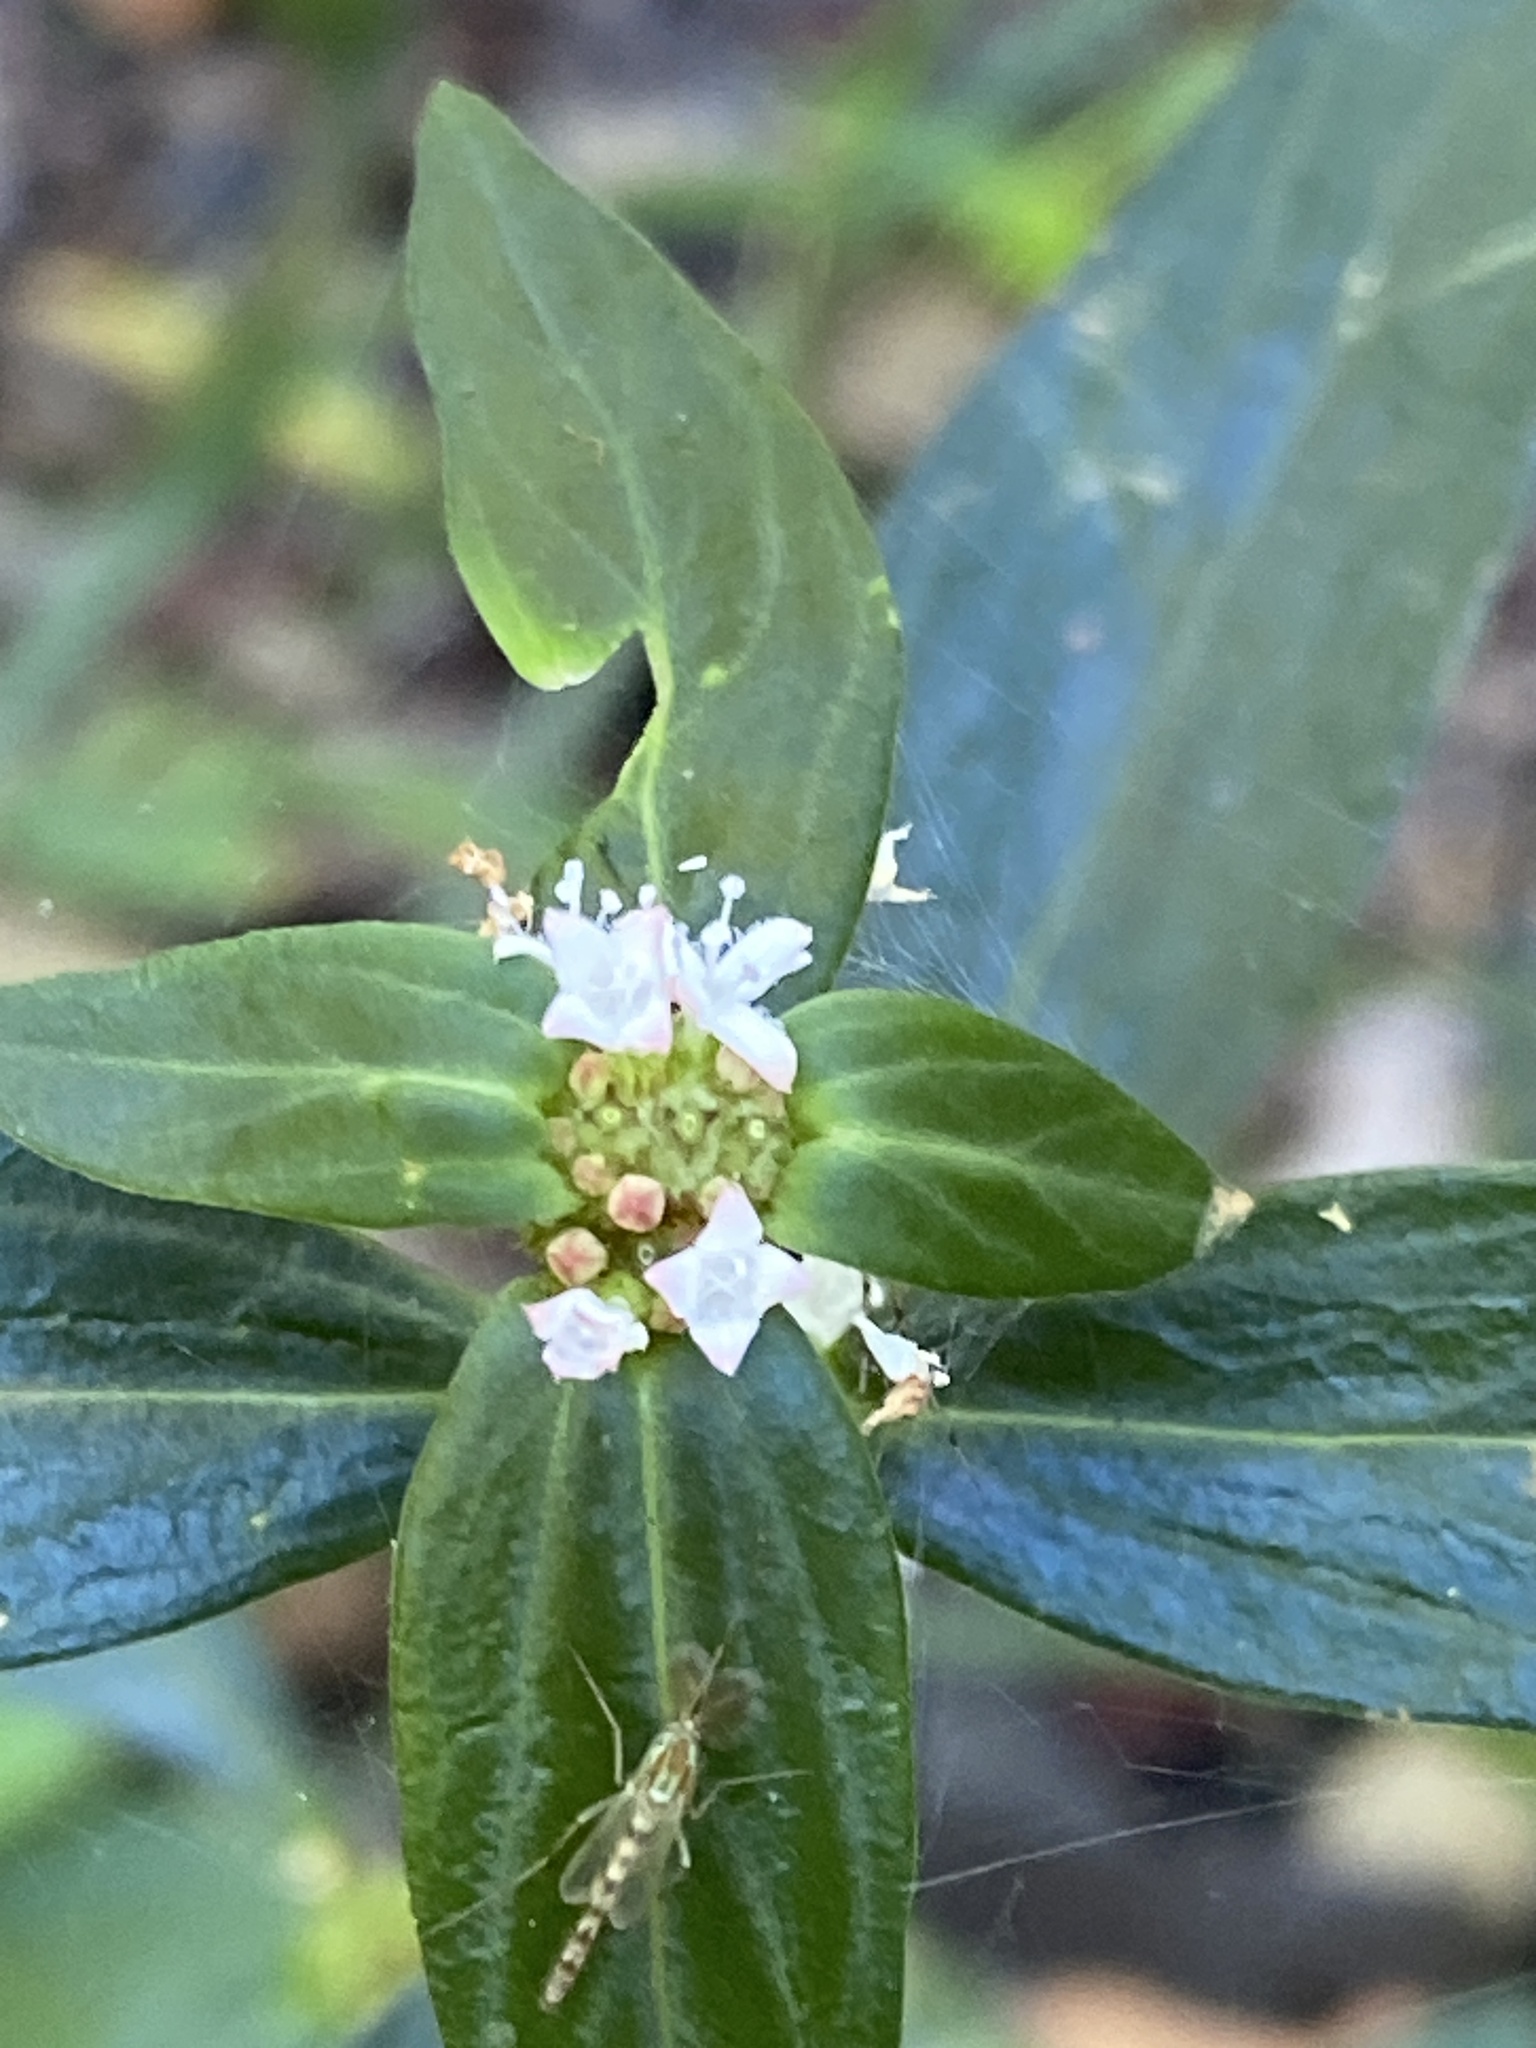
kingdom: Plantae
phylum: Tracheophyta
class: Magnoliopsida
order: Gentianales
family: Rubiaceae
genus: Spermacoce
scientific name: Spermacoce remota
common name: Woodland false buttonweed
